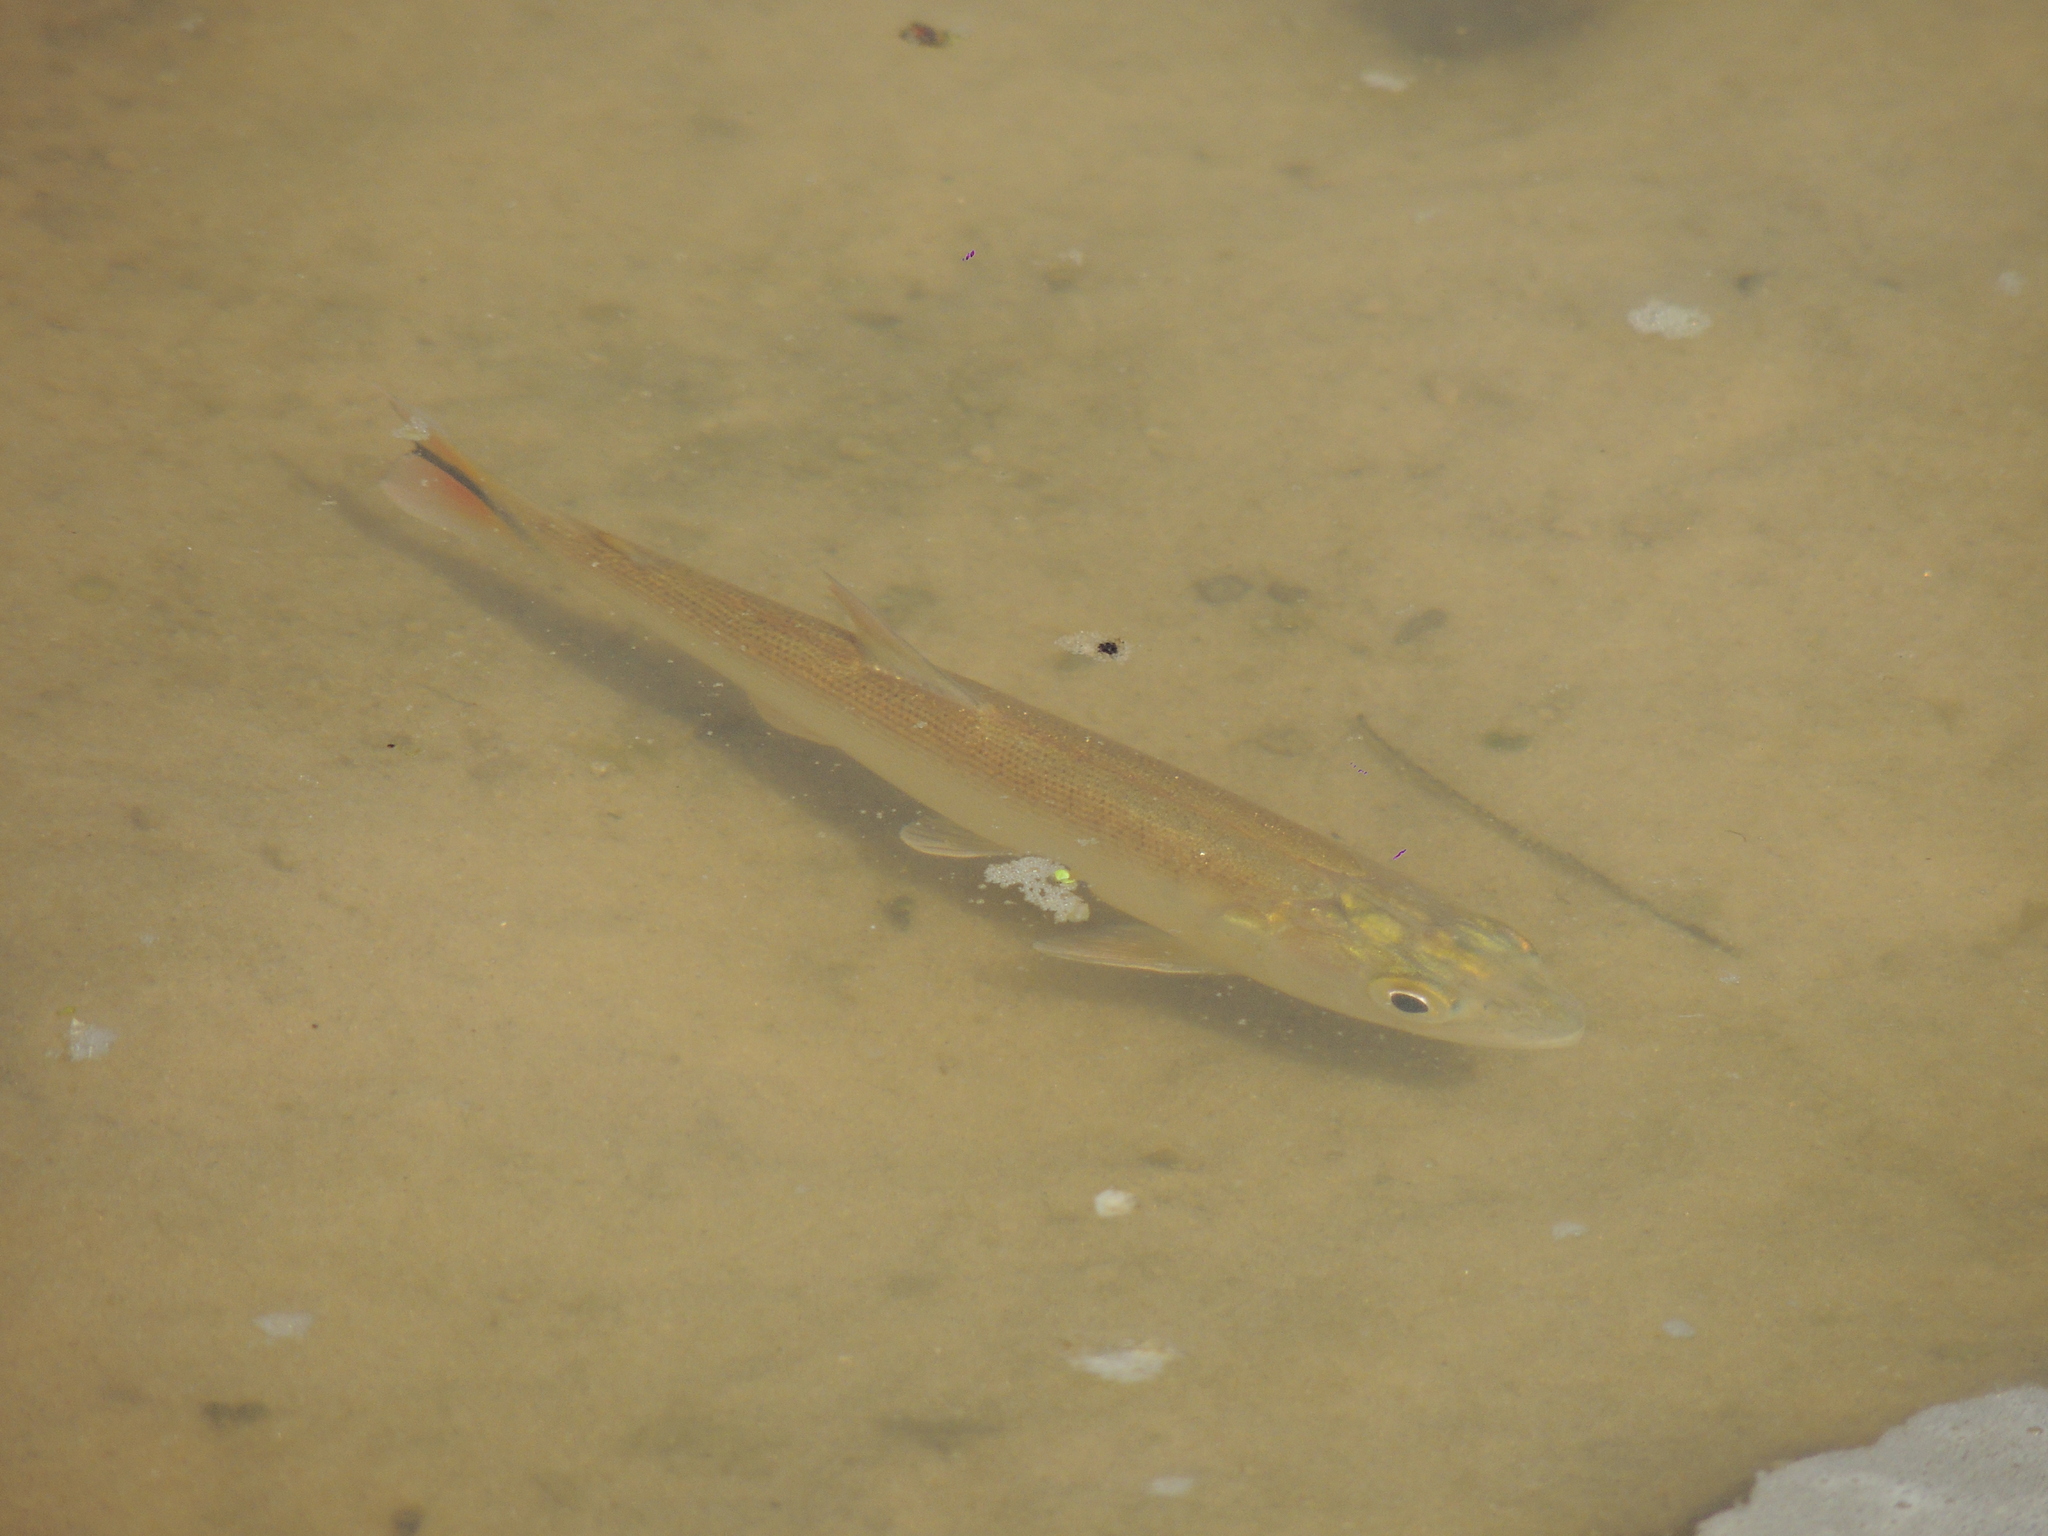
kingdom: Animalia
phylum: Chordata
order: Characiformes
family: Bryconidae
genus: Salminus
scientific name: Salminus brasiliensis
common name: Dorado
